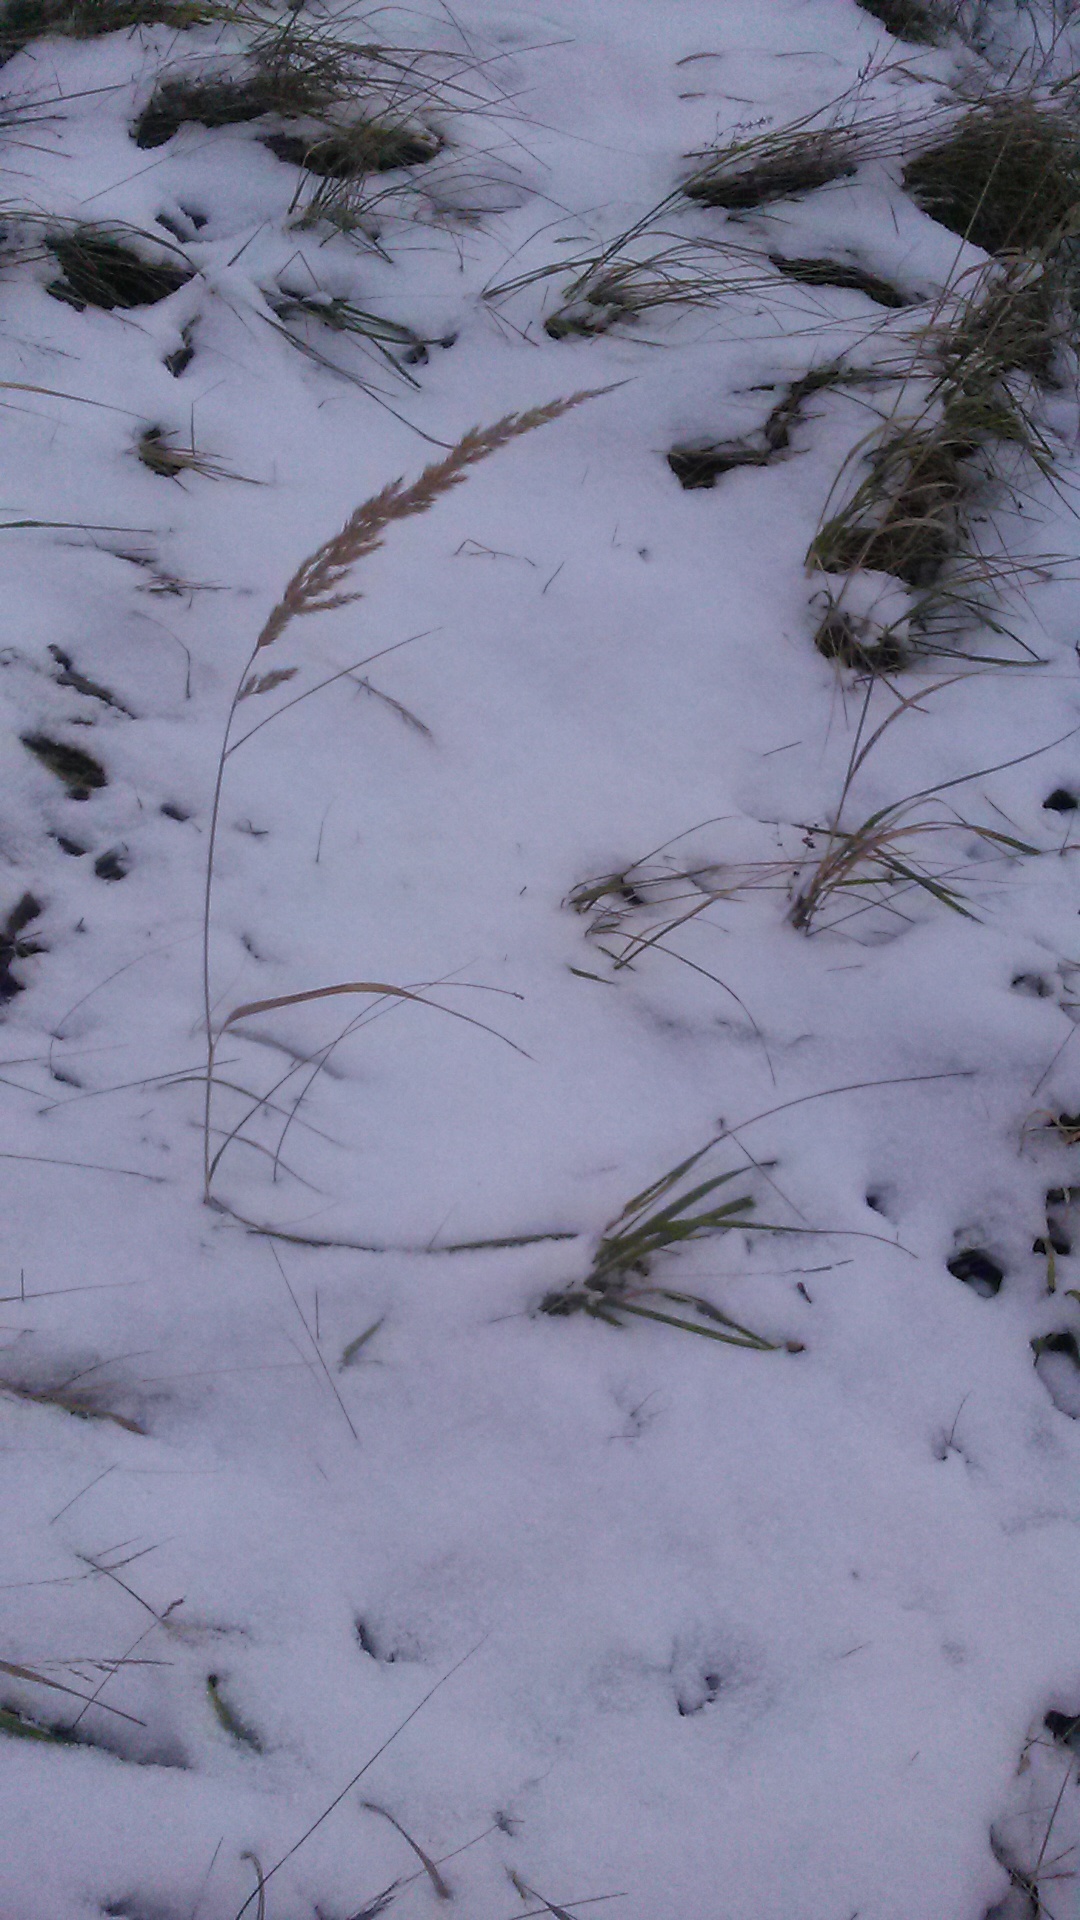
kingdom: Plantae
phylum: Tracheophyta
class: Liliopsida
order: Poales
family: Poaceae
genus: Calamagrostis
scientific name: Calamagrostis epigejos
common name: Wood small-reed
